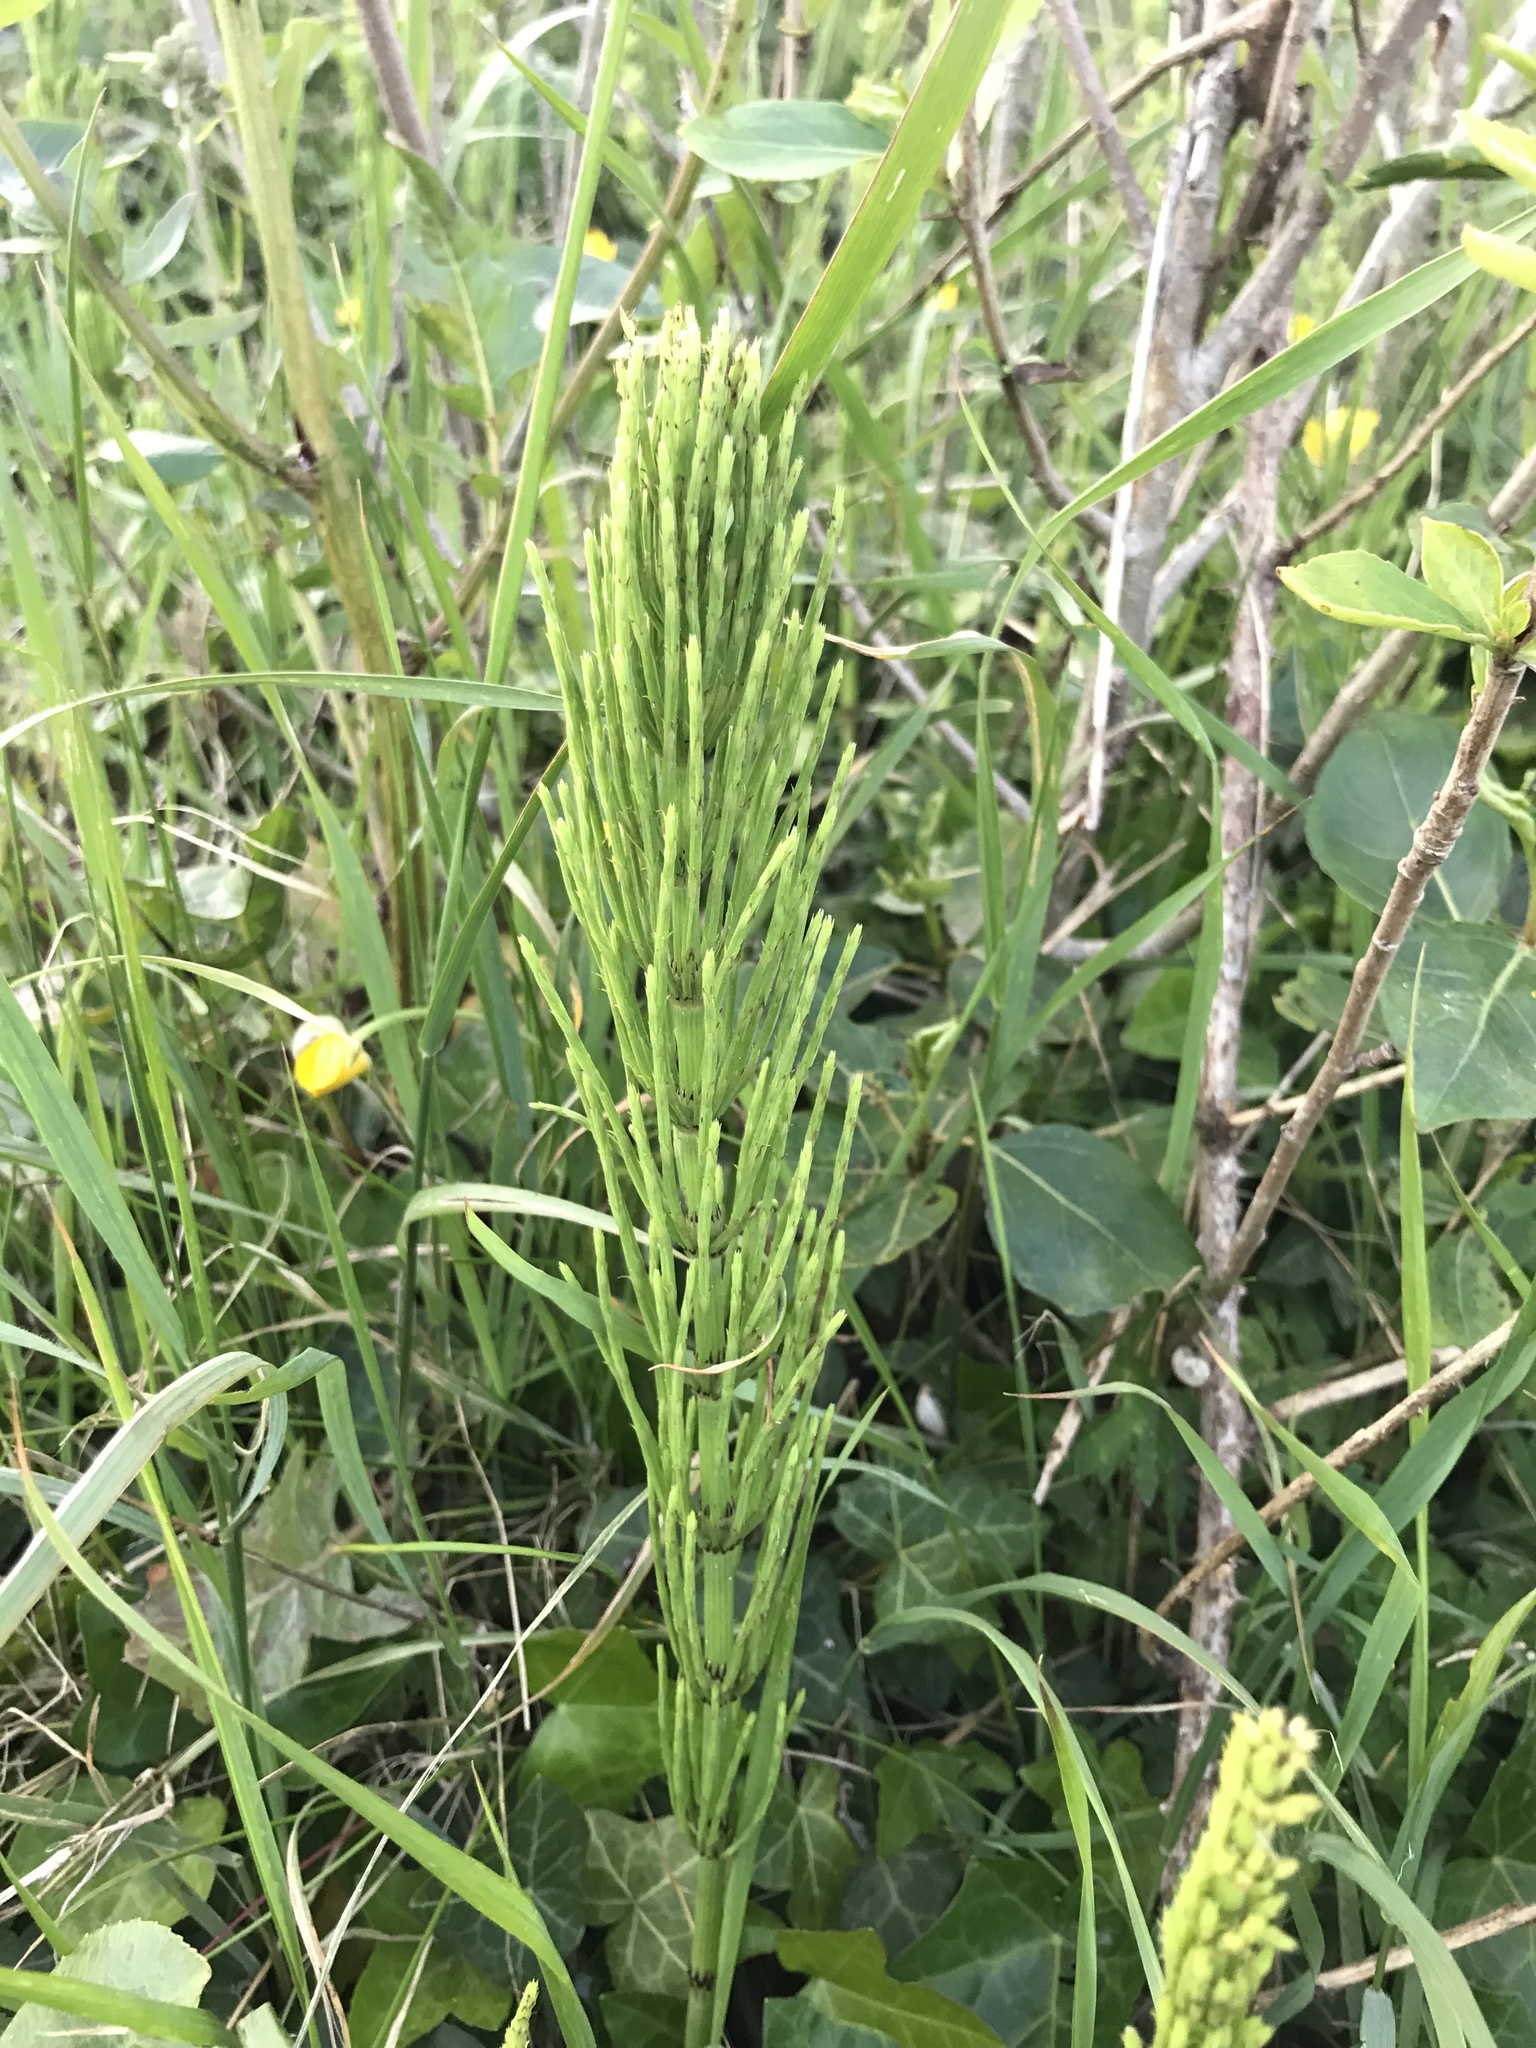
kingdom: Plantae
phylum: Tracheophyta
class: Polypodiopsida
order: Equisetales
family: Equisetaceae
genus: Equisetum
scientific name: Equisetum arvense
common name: Field horsetail
